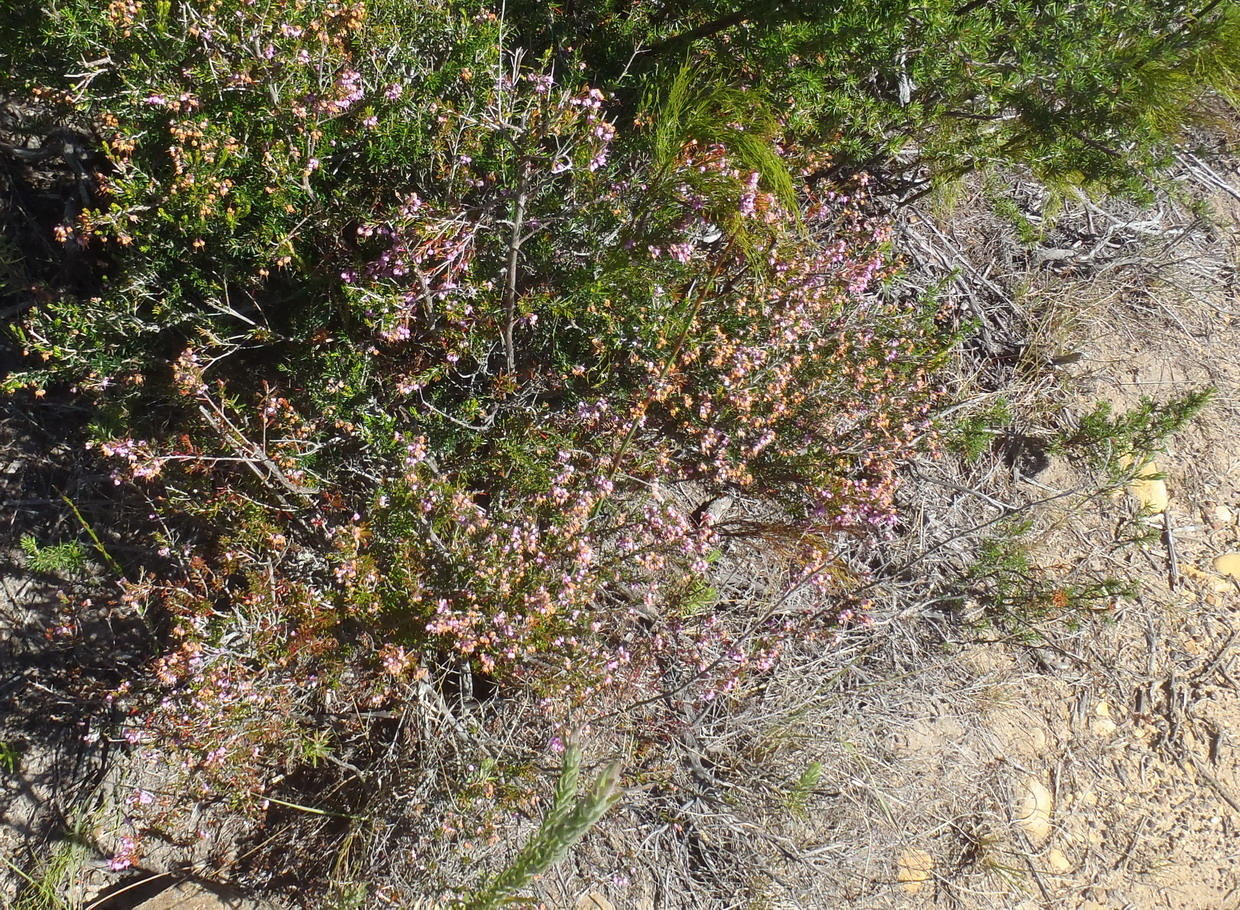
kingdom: Plantae
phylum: Tracheophyta
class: Magnoliopsida
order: Ericales
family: Ericaceae
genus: Erica
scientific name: Erica canaliculata
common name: Hairy grey heather
